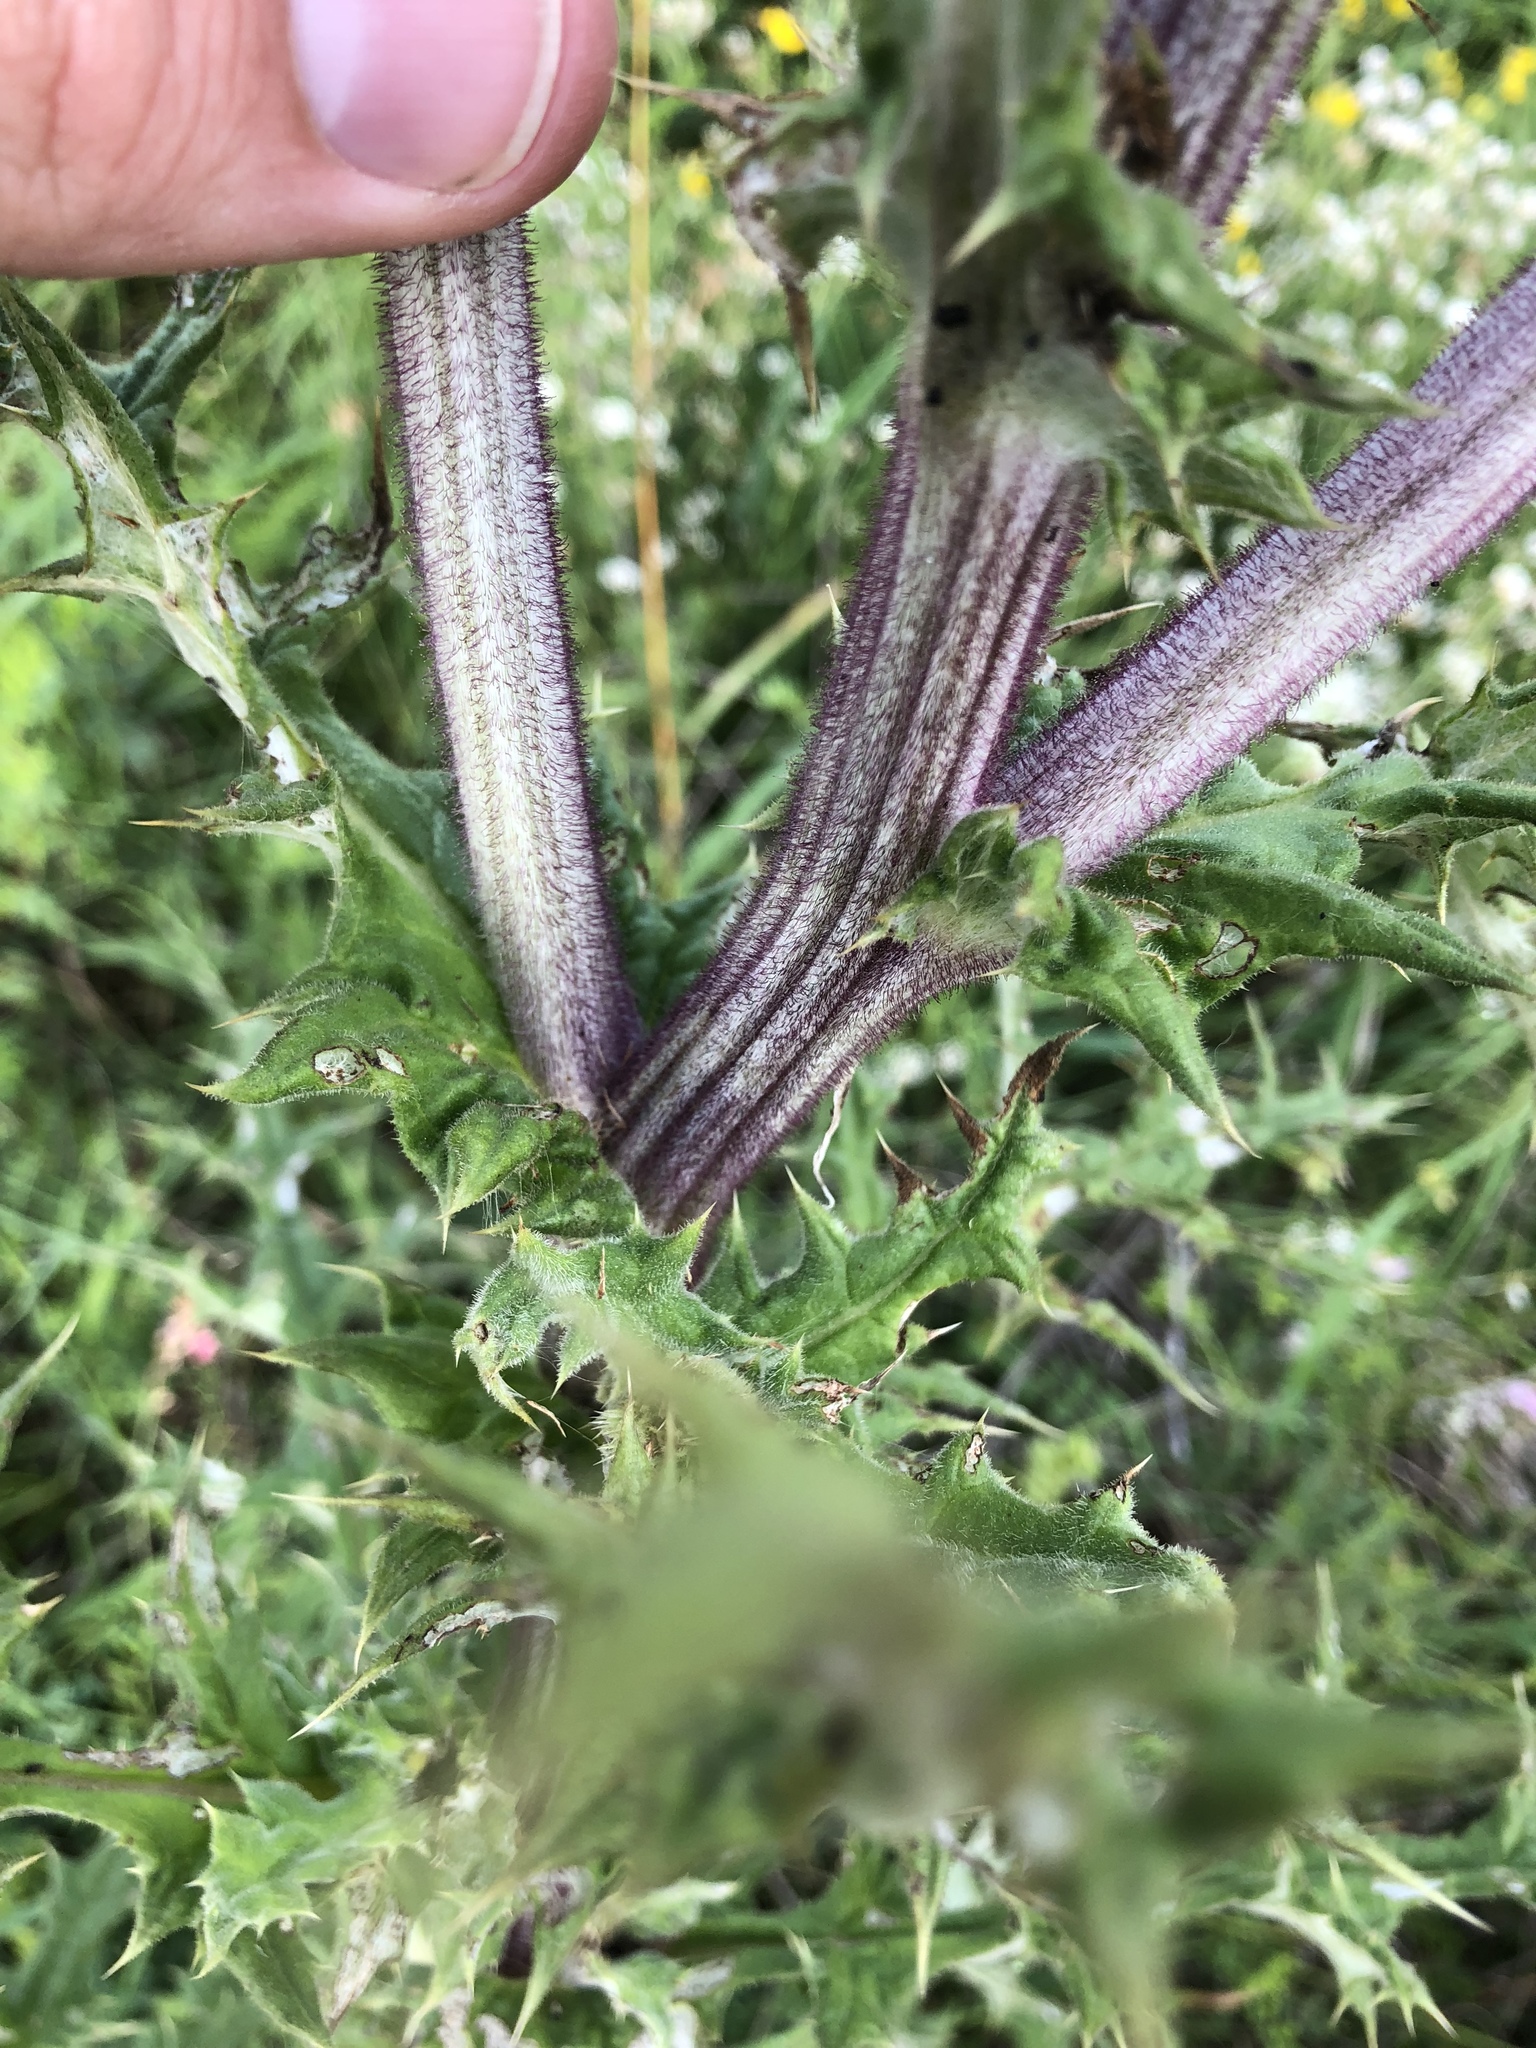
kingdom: Plantae
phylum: Tracheophyta
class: Magnoliopsida
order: Asterales
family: Asteraceae
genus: Echinops
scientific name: Echinops sphaerocephalus
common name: Glandular globe-thistle
